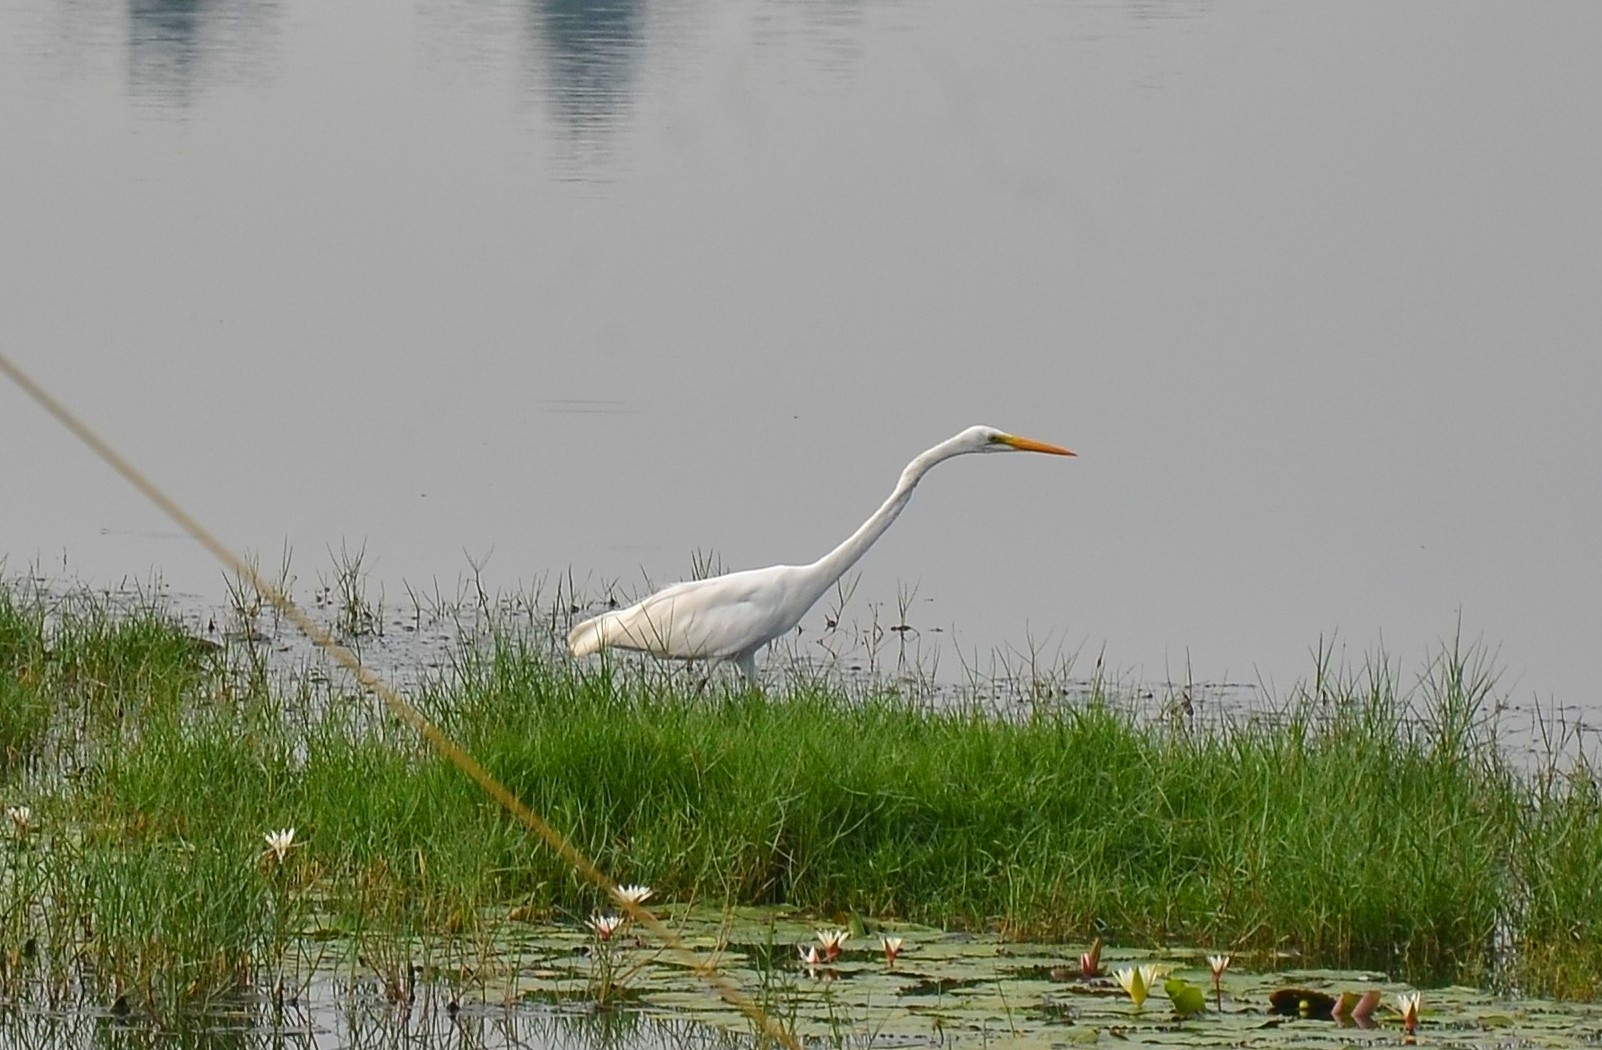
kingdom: Animalia
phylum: Chordata
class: Aves
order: Pelecaniformes
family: Ardeidae
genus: Ardea
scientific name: Ardea alba
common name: Great egret
